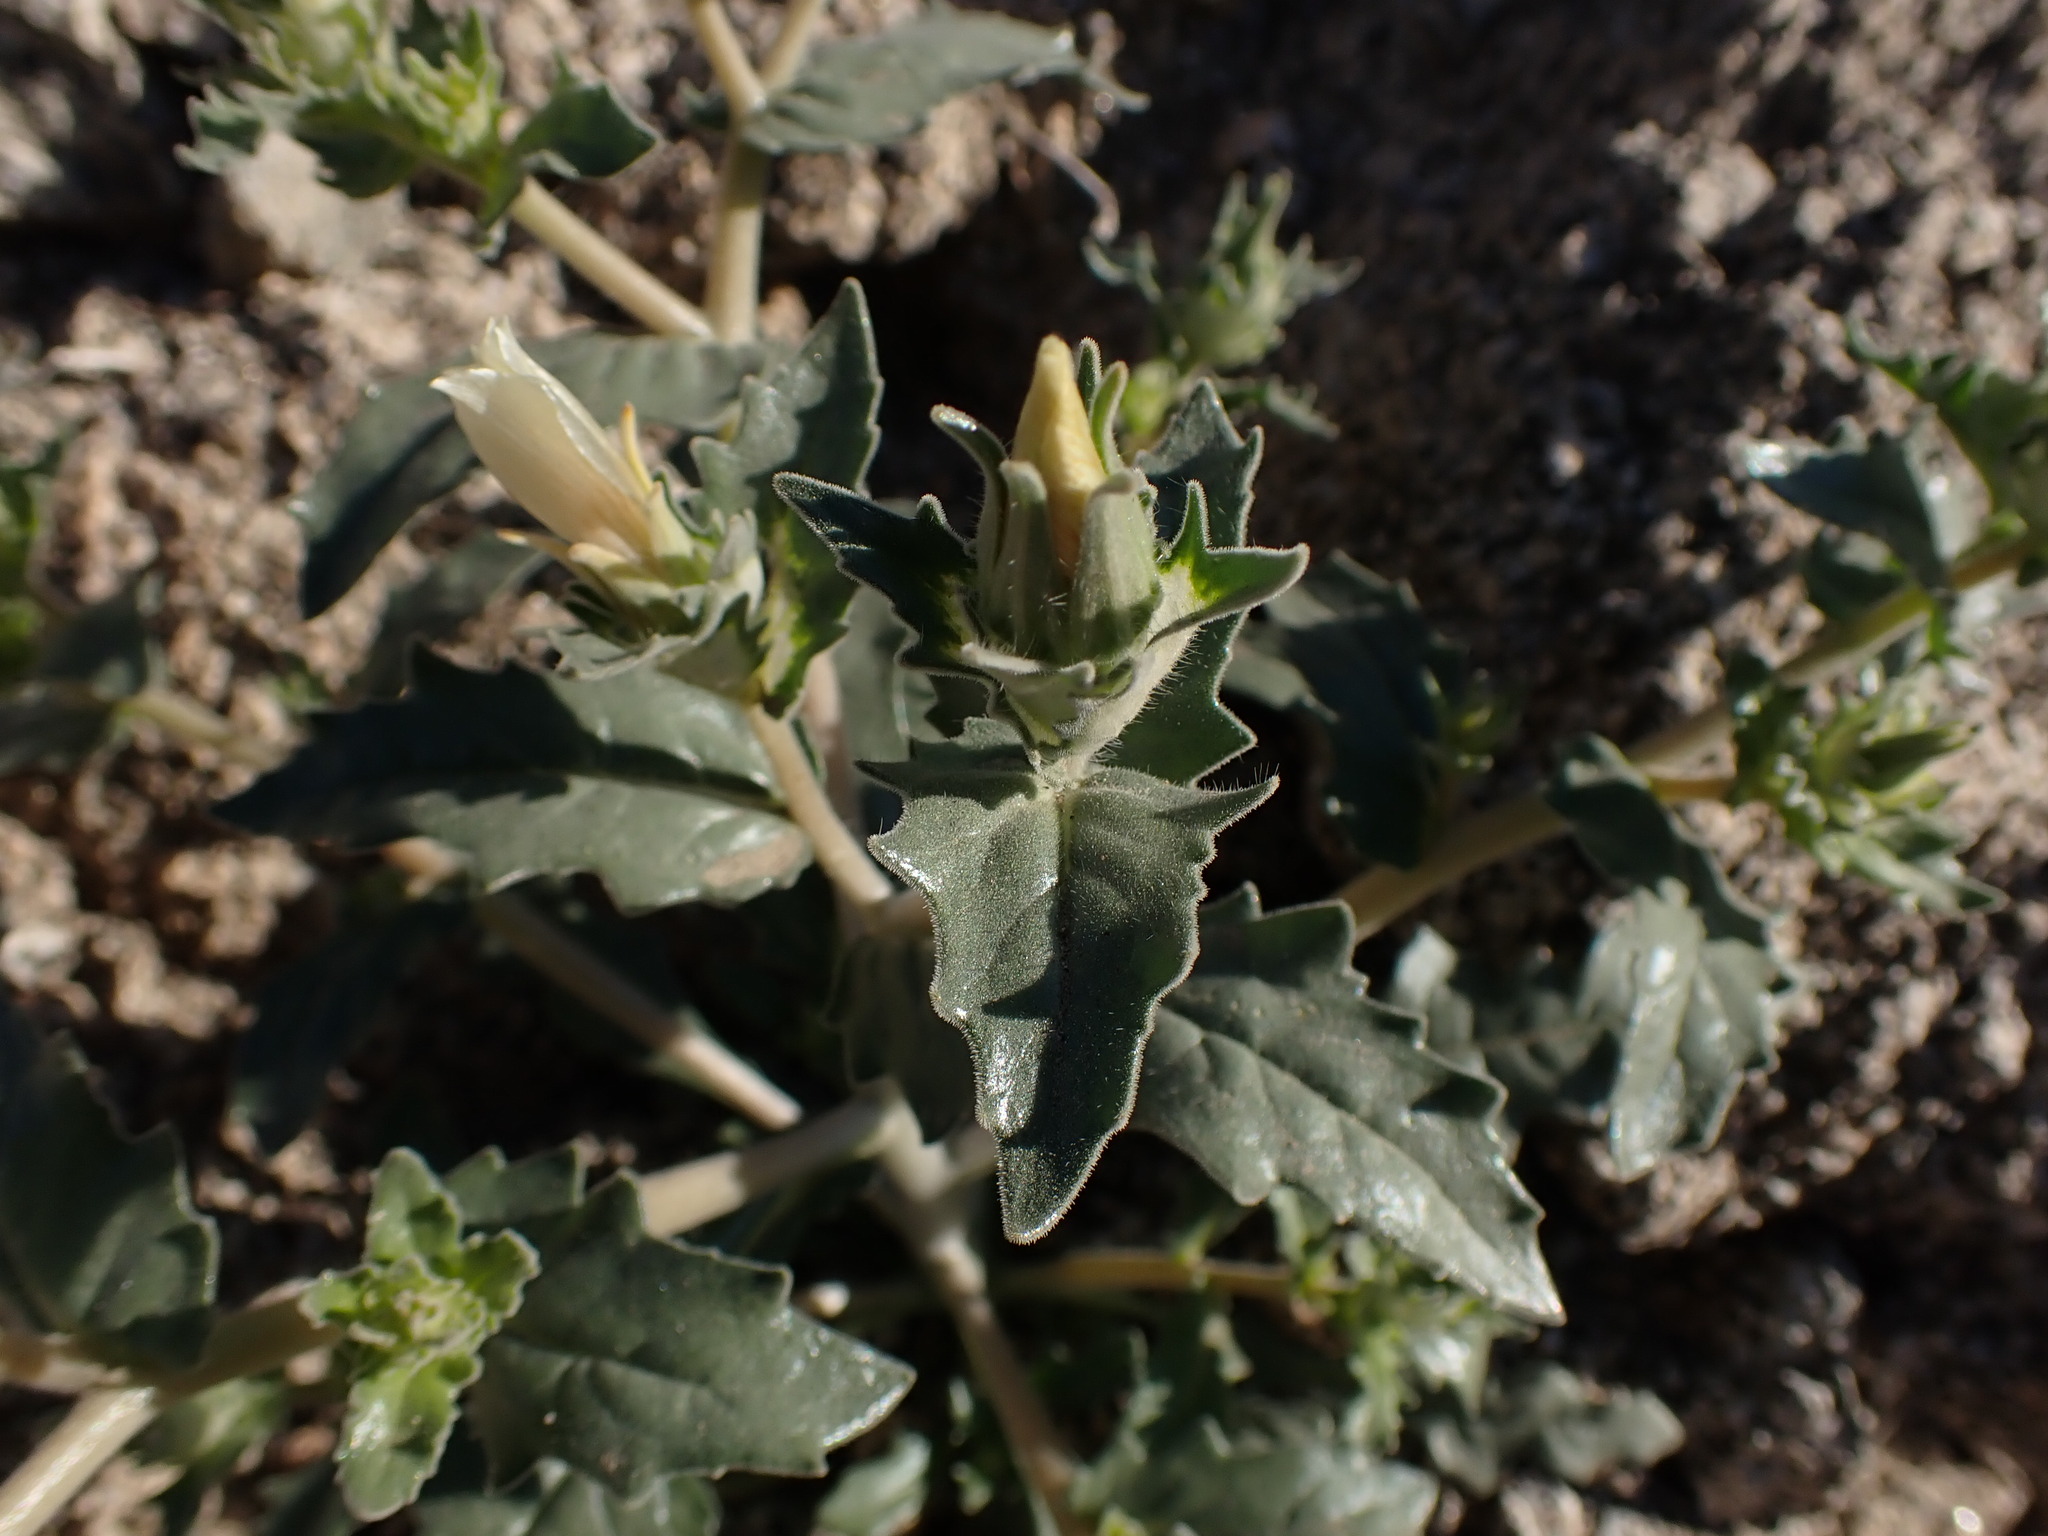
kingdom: Plantae
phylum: Tracheophyta
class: Magnoliopsida
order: Cornales
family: Loasaceae
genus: Mentzelia
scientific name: Mentzelia involucrata
